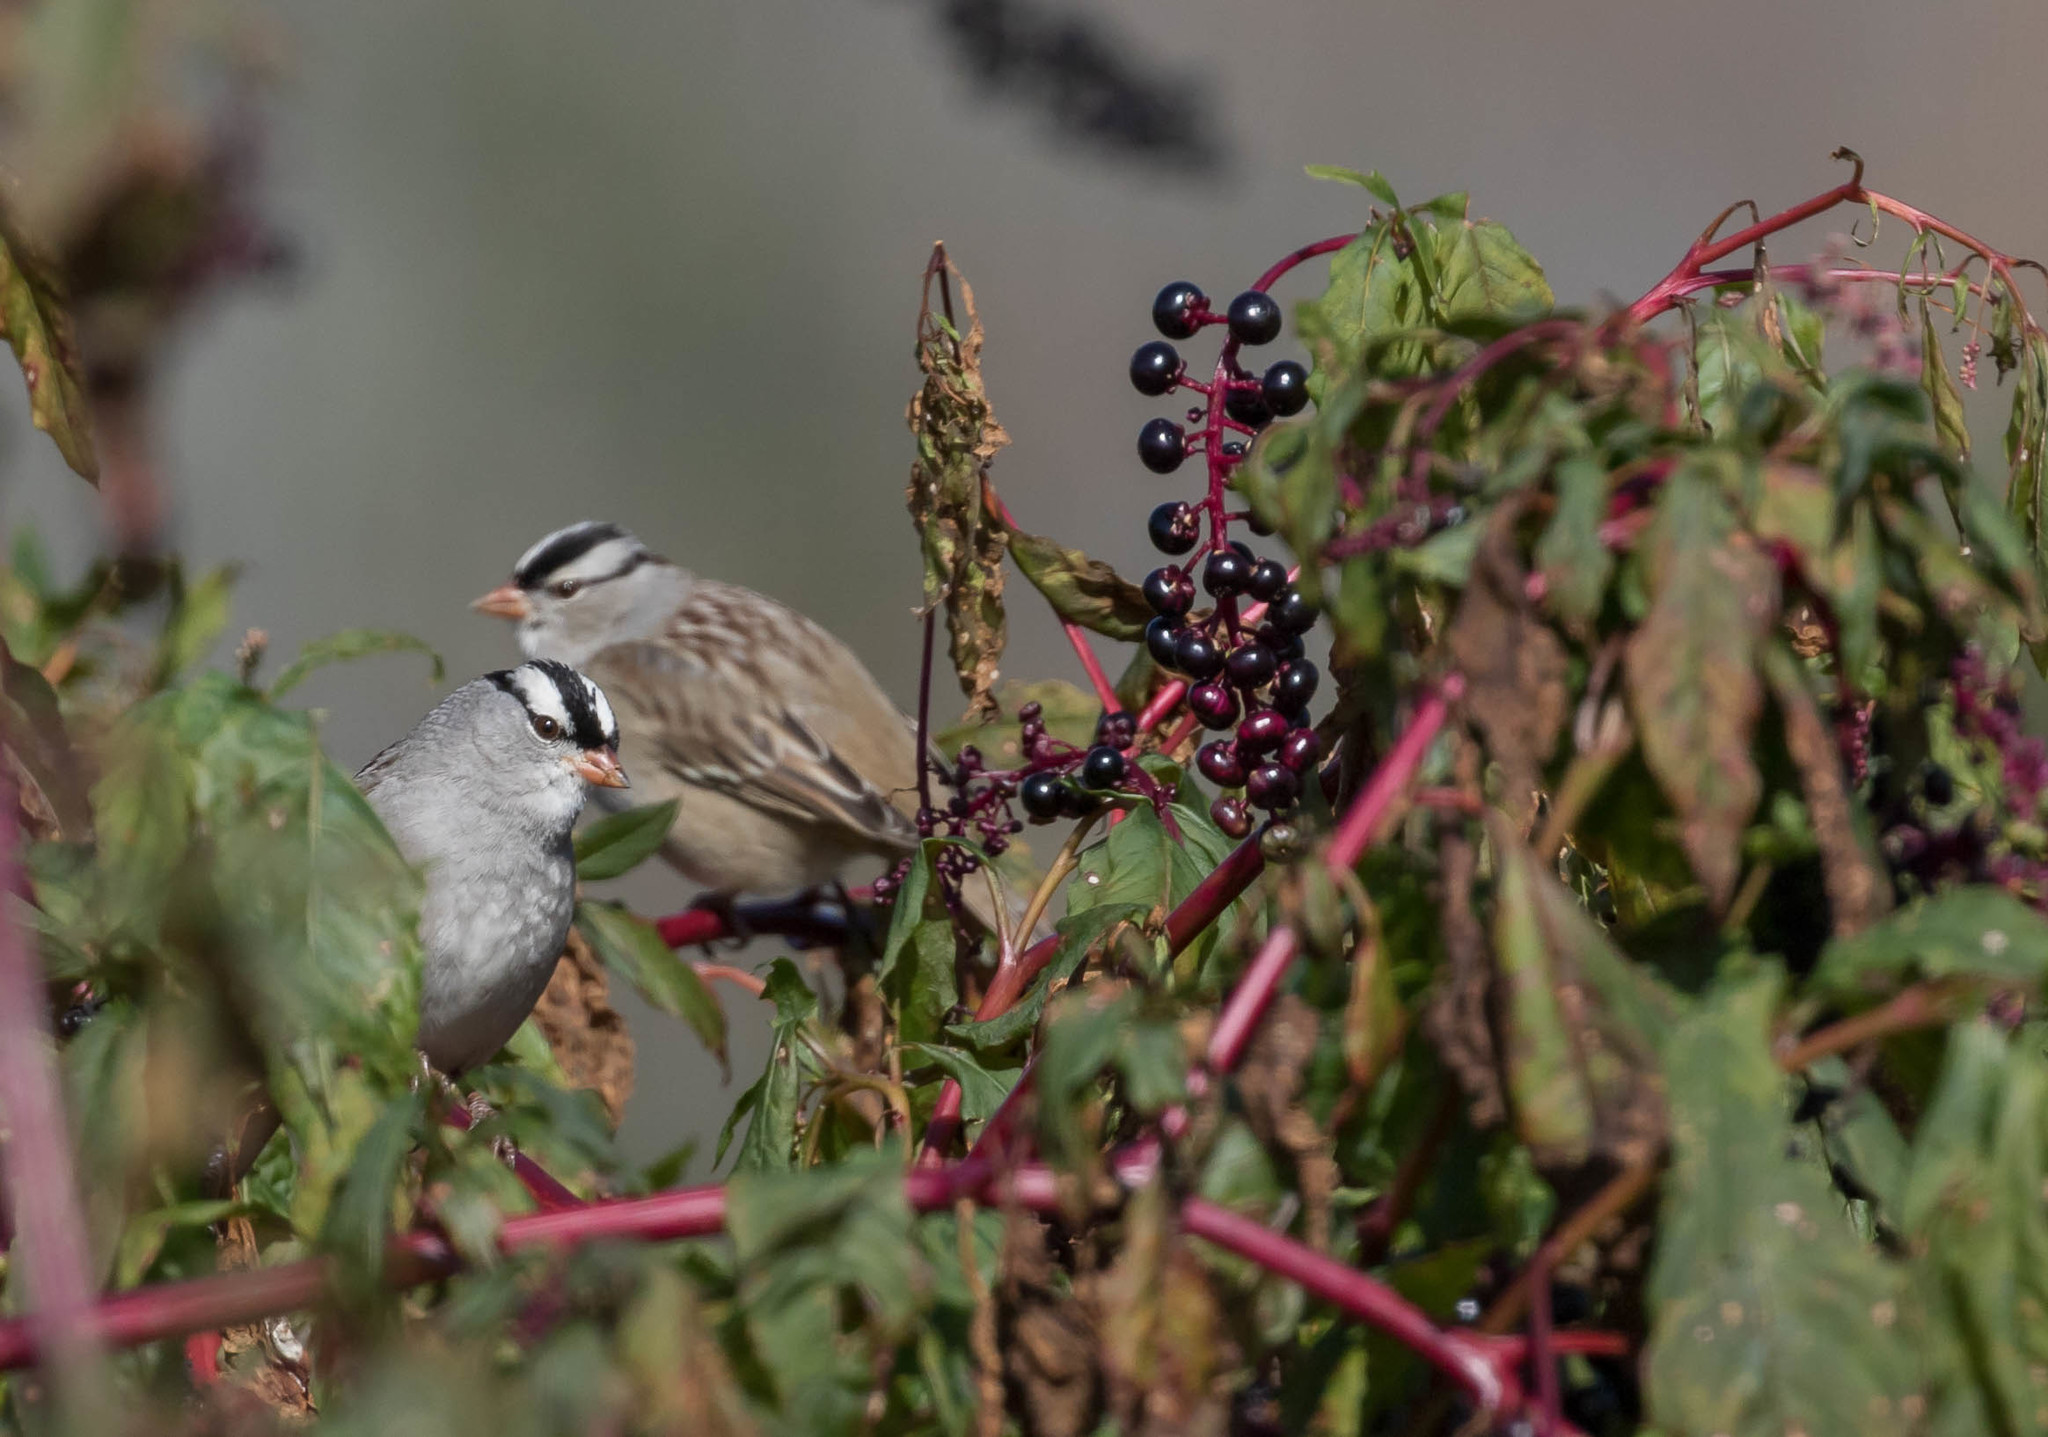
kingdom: Animalia
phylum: Chordata
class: Aves
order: Passeriformes
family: Passerellidae
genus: Zonotrichia
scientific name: Zonotrichia leucophrys
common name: White-crowned sparrow
